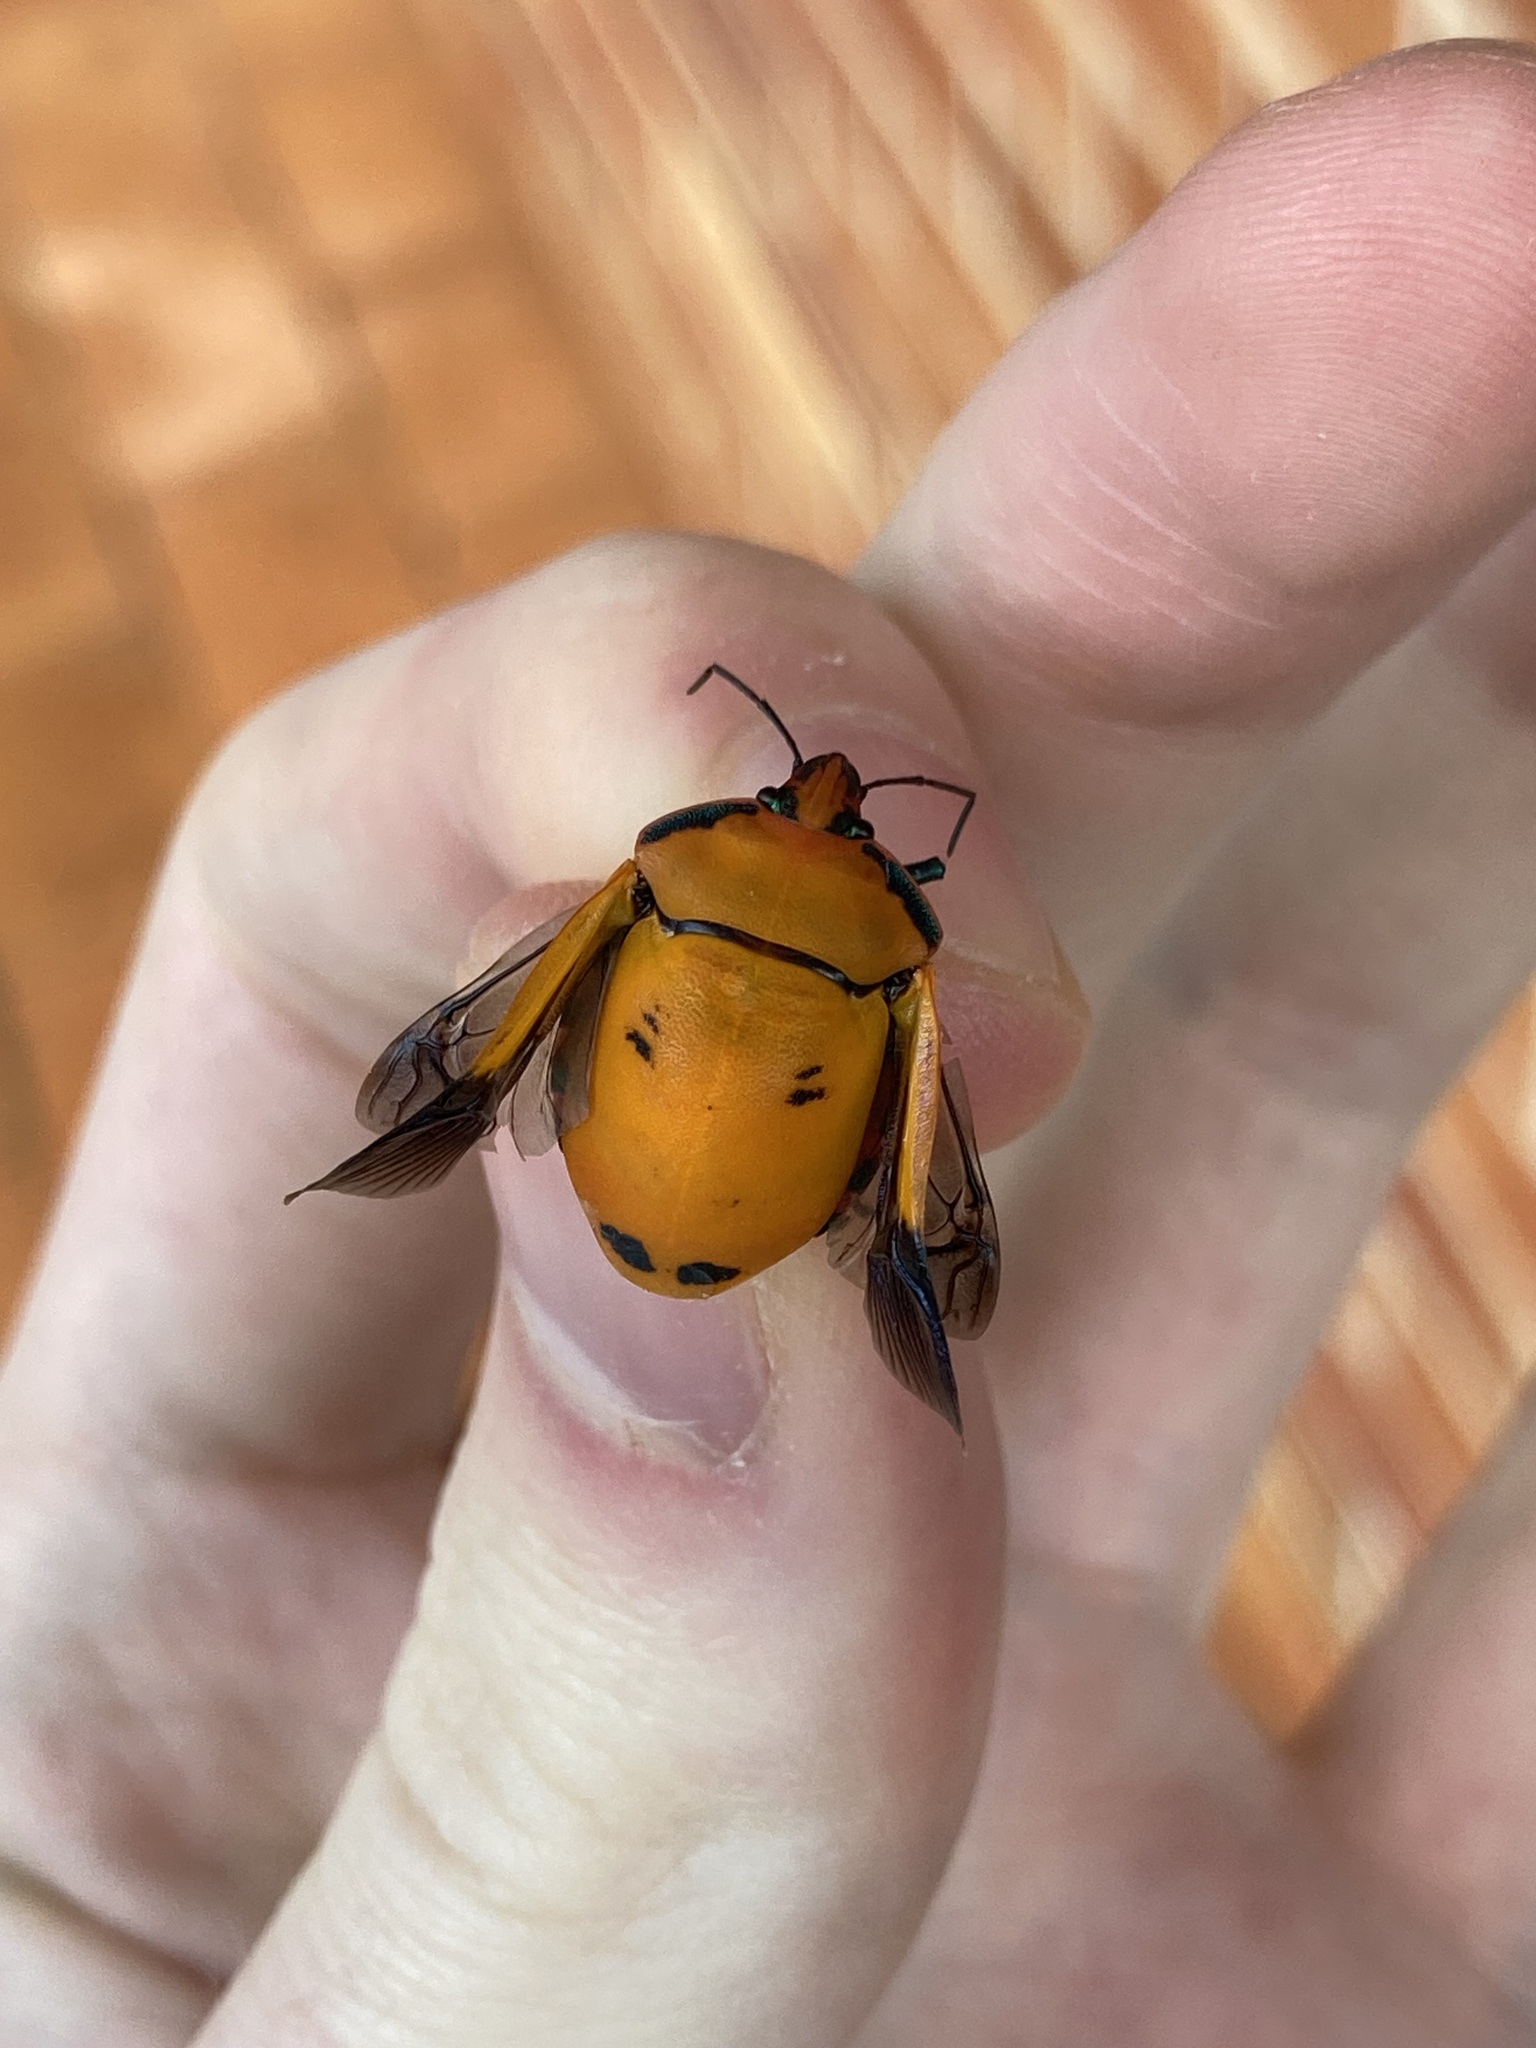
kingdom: Animalia
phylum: Arthropoda
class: Insecta
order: Hemiptera
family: Scutelleridae
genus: Tectocoris
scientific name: Tectocoris diophthalmus
